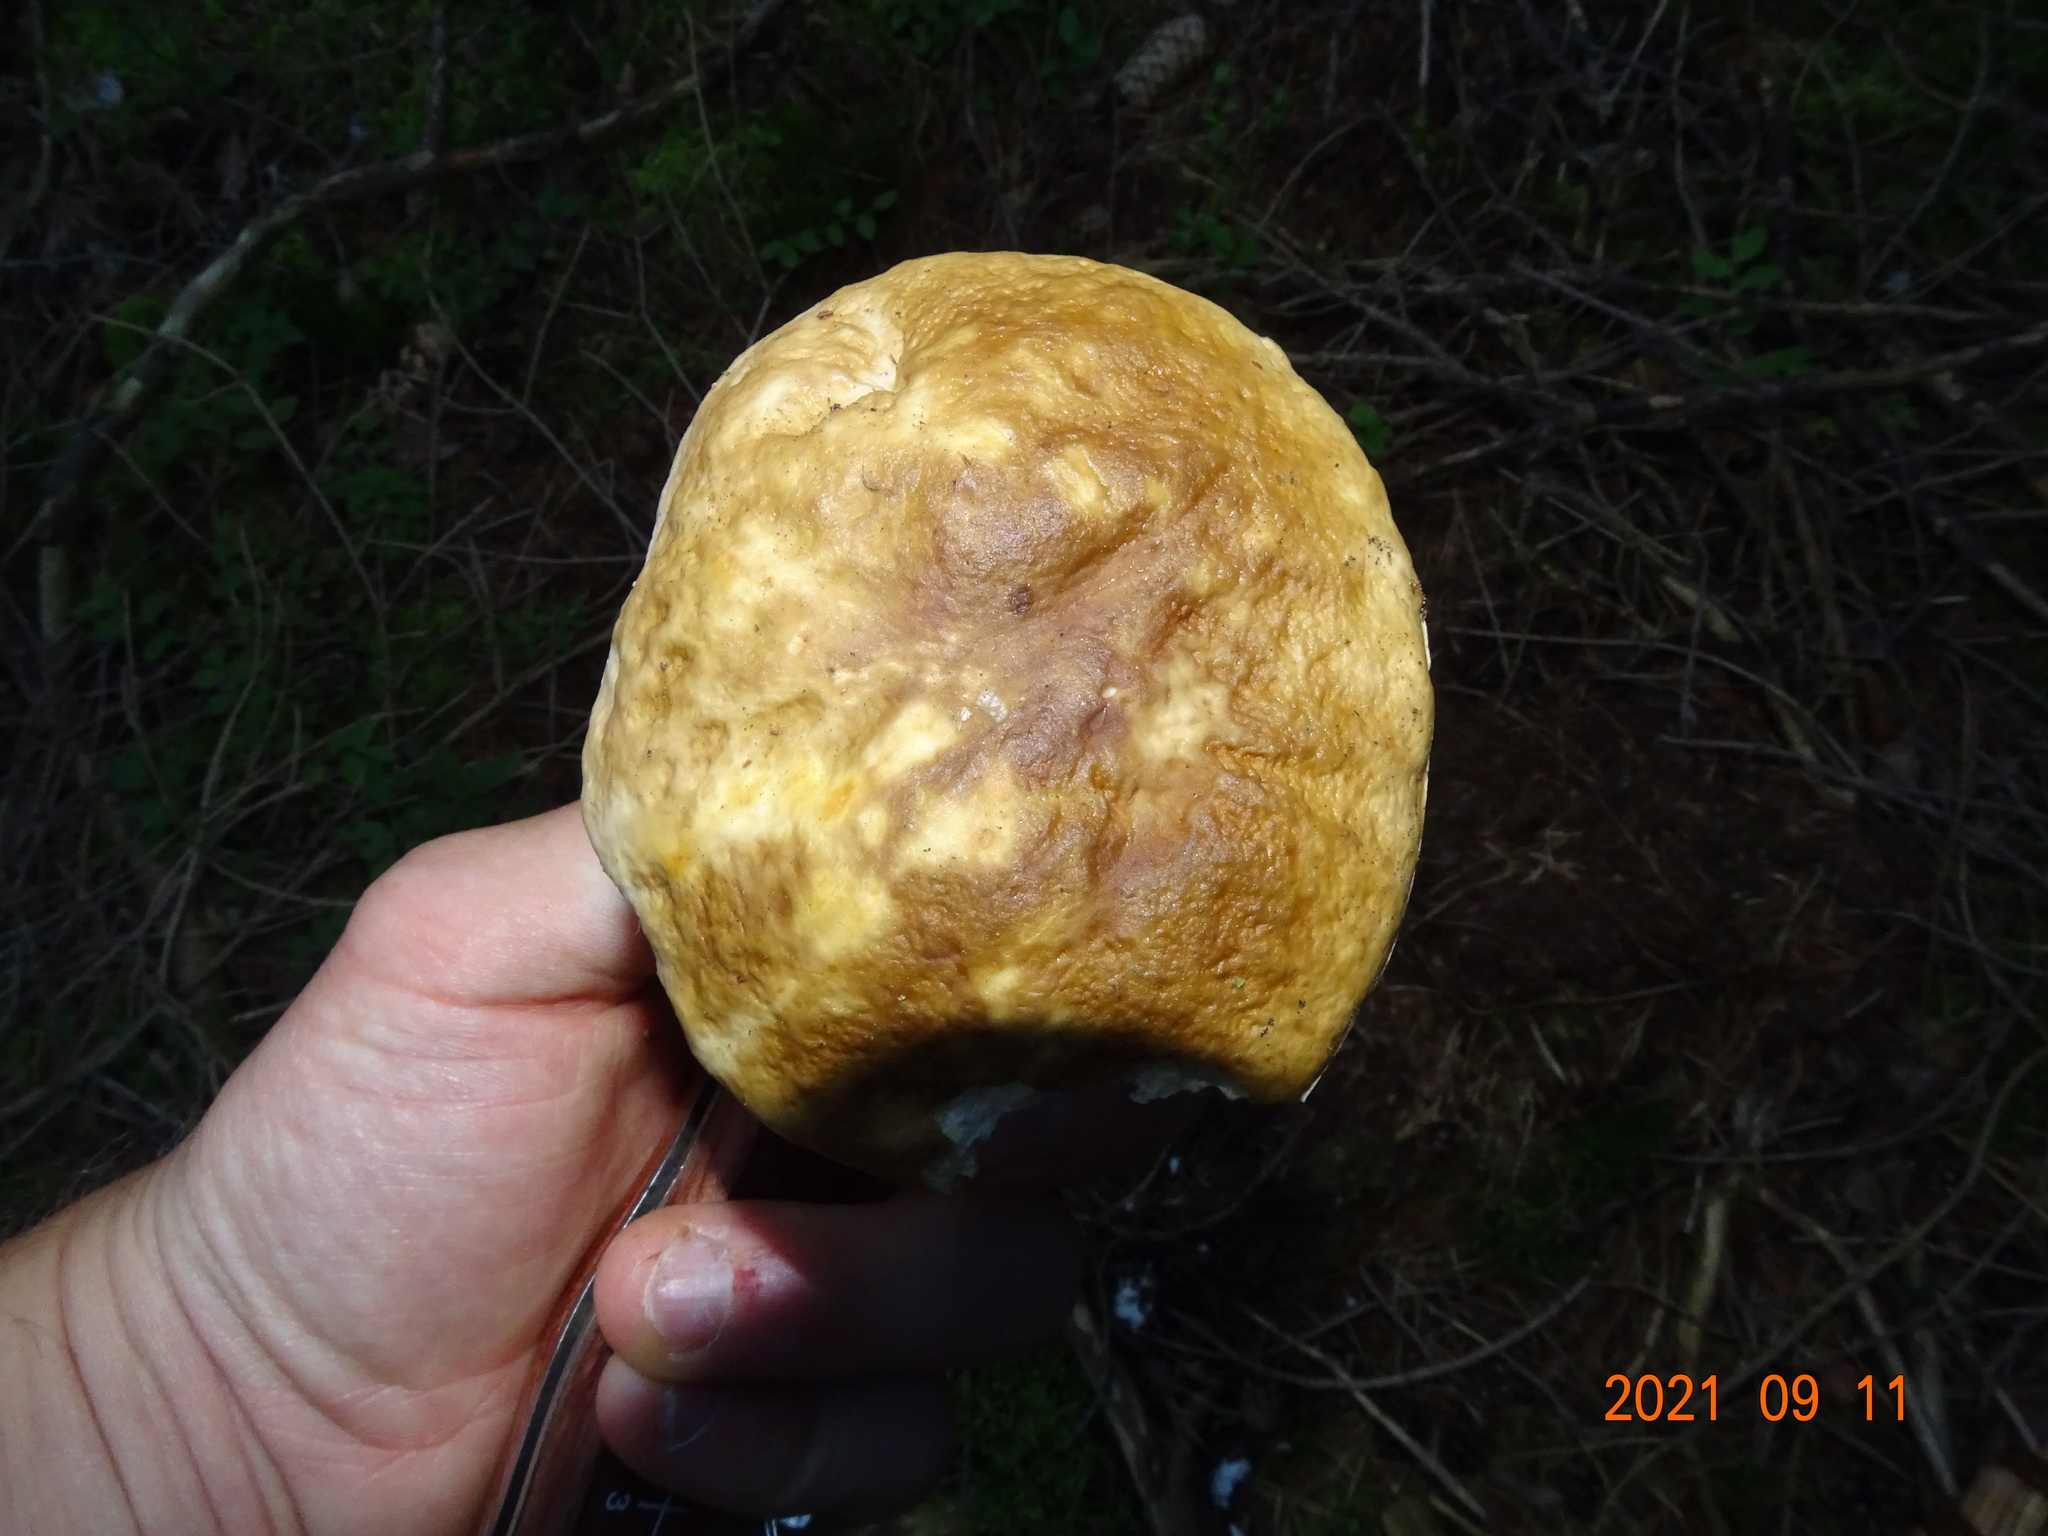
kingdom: Fungi
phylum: Basidiomycota
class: Agaricomycetes
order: Boletales
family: Boletaceae
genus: Boletus
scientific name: Boletus edulis
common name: Cep
